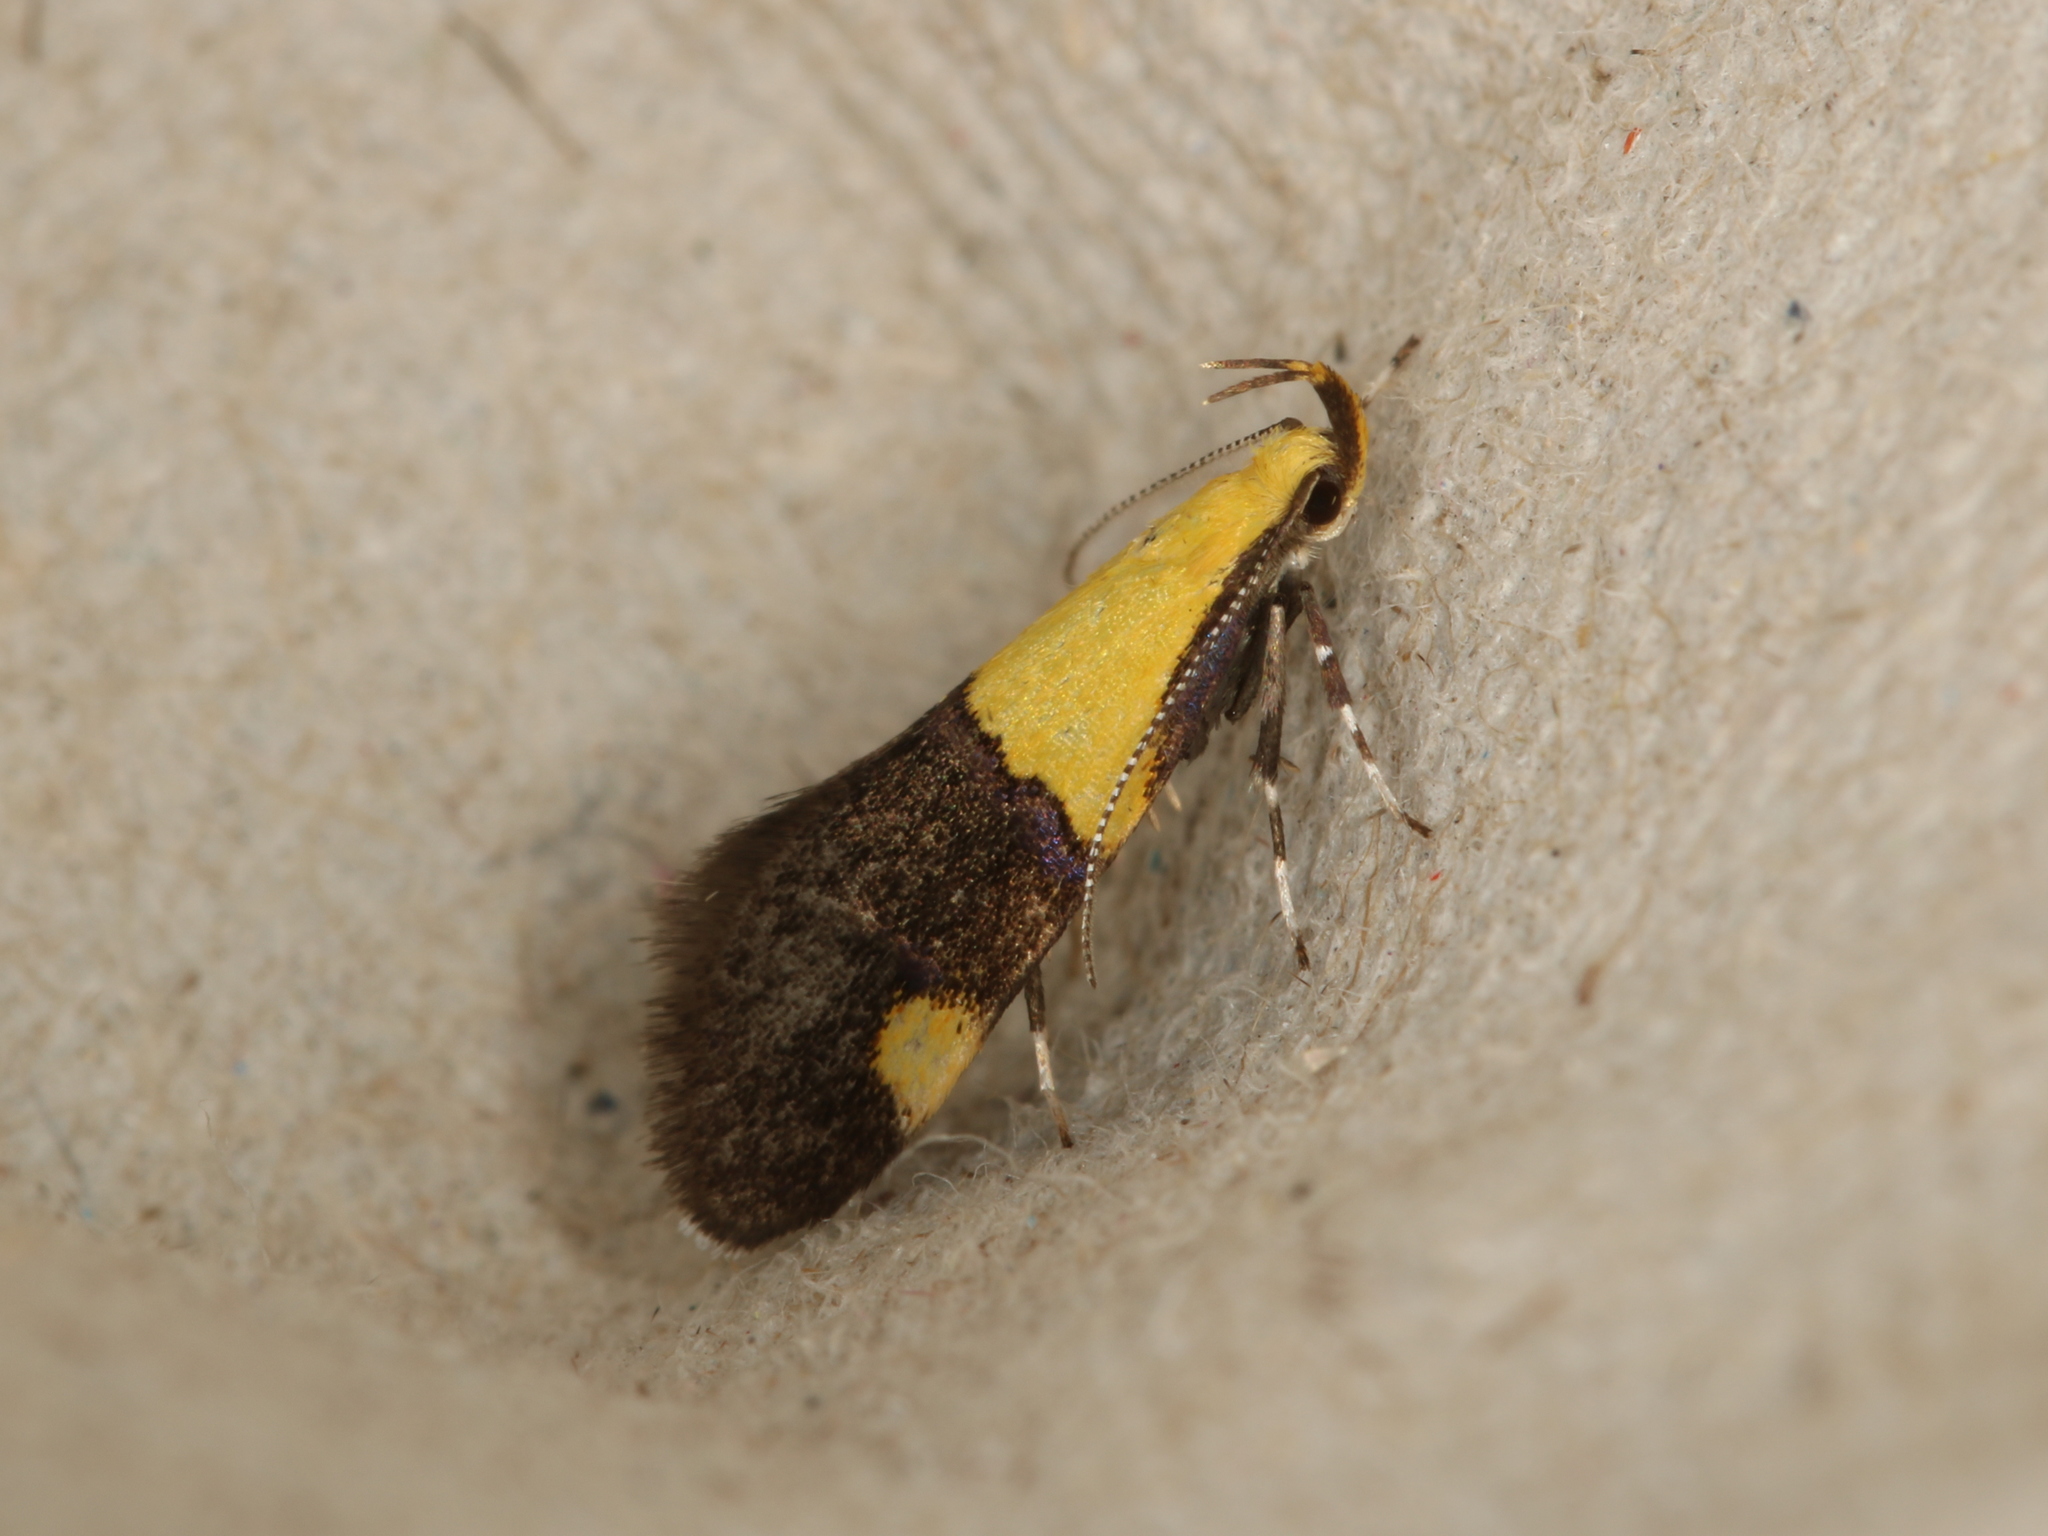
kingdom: Animalia
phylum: Arthropoda
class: Insecta
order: Lepidoptera
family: Oecophoridae
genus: Oecophora
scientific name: Oecophora bractella
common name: Gold-base tubic
